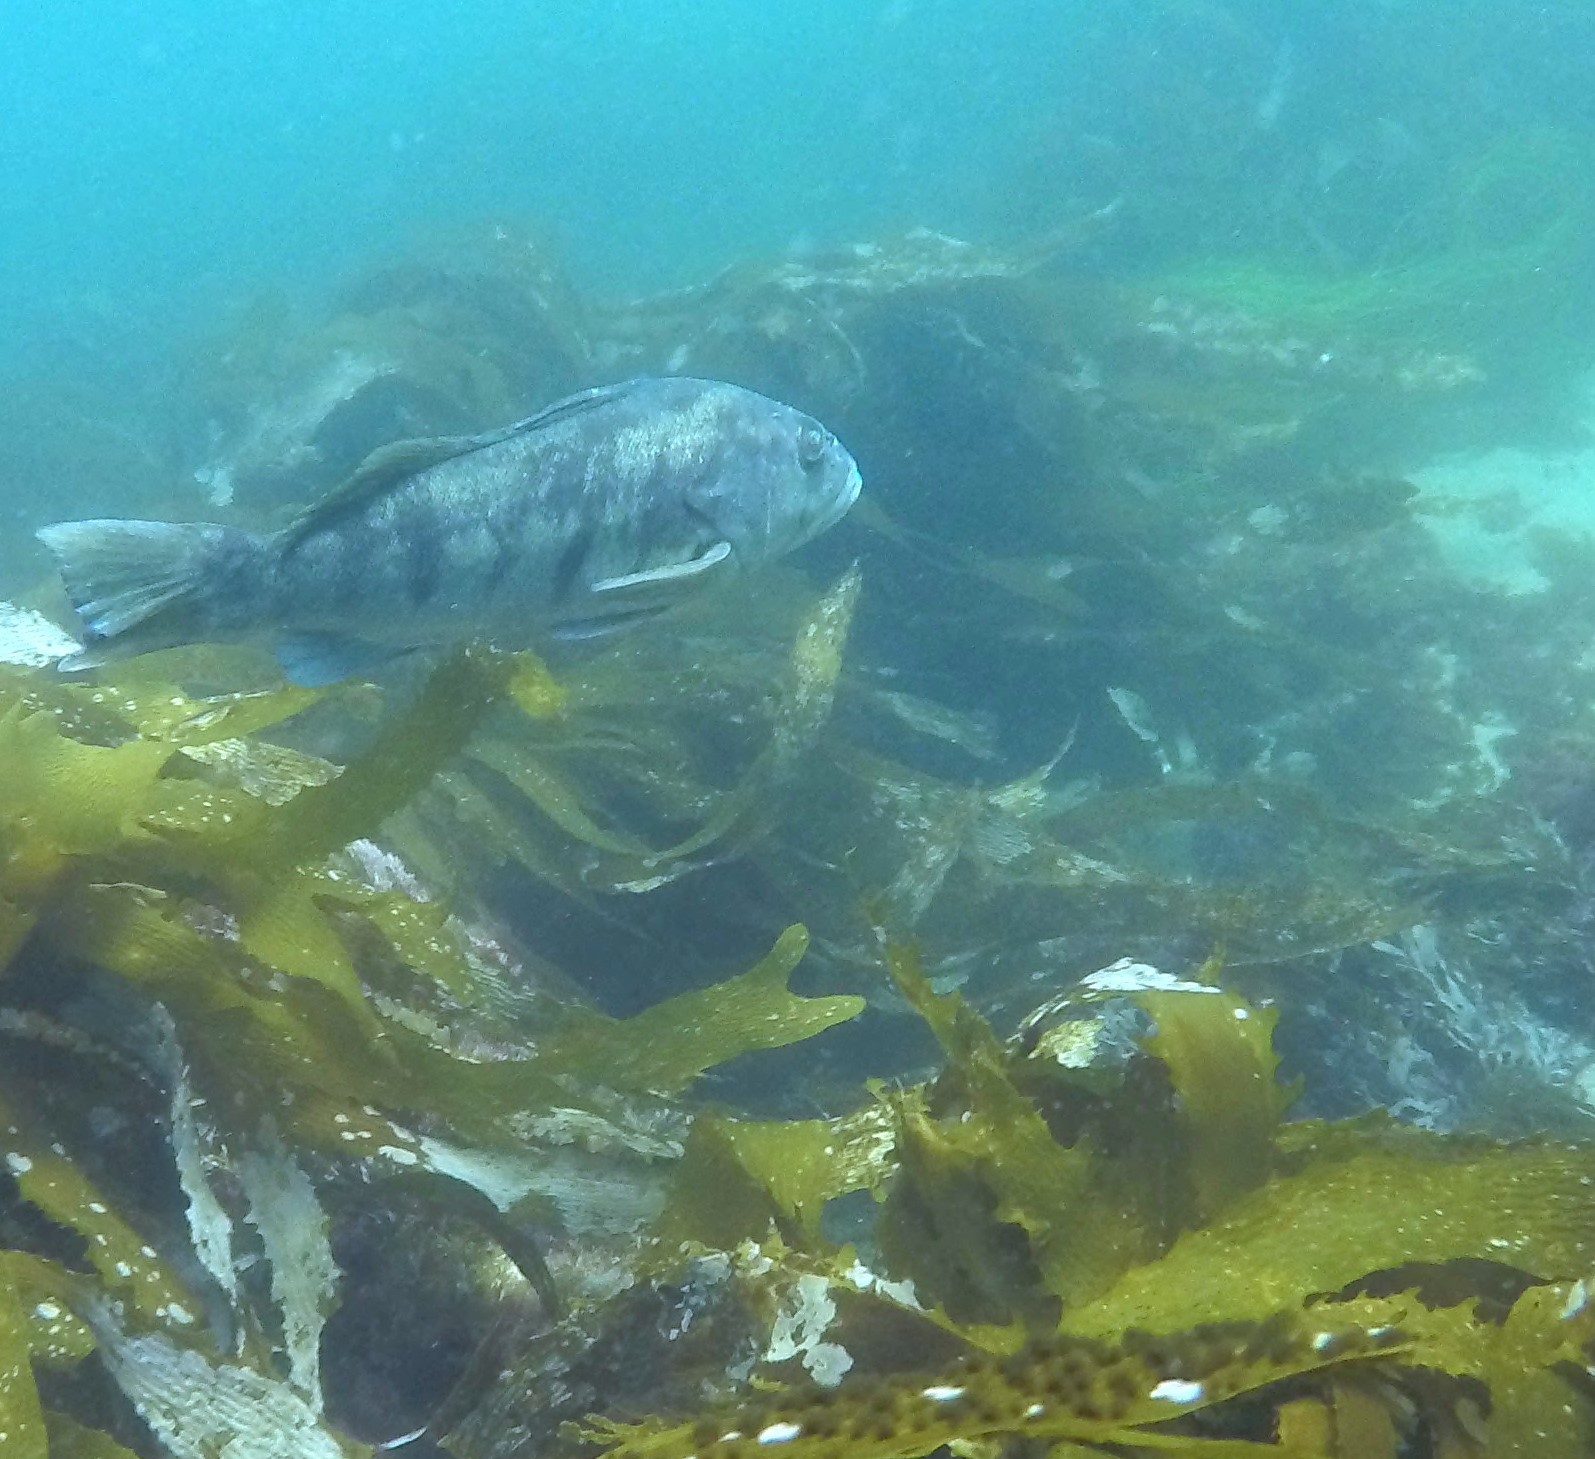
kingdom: Animalia
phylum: Chordata
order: Perciformes
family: Serranidae
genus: Paralabrax
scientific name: Paralabrax nebulifer
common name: Barred sand bass
